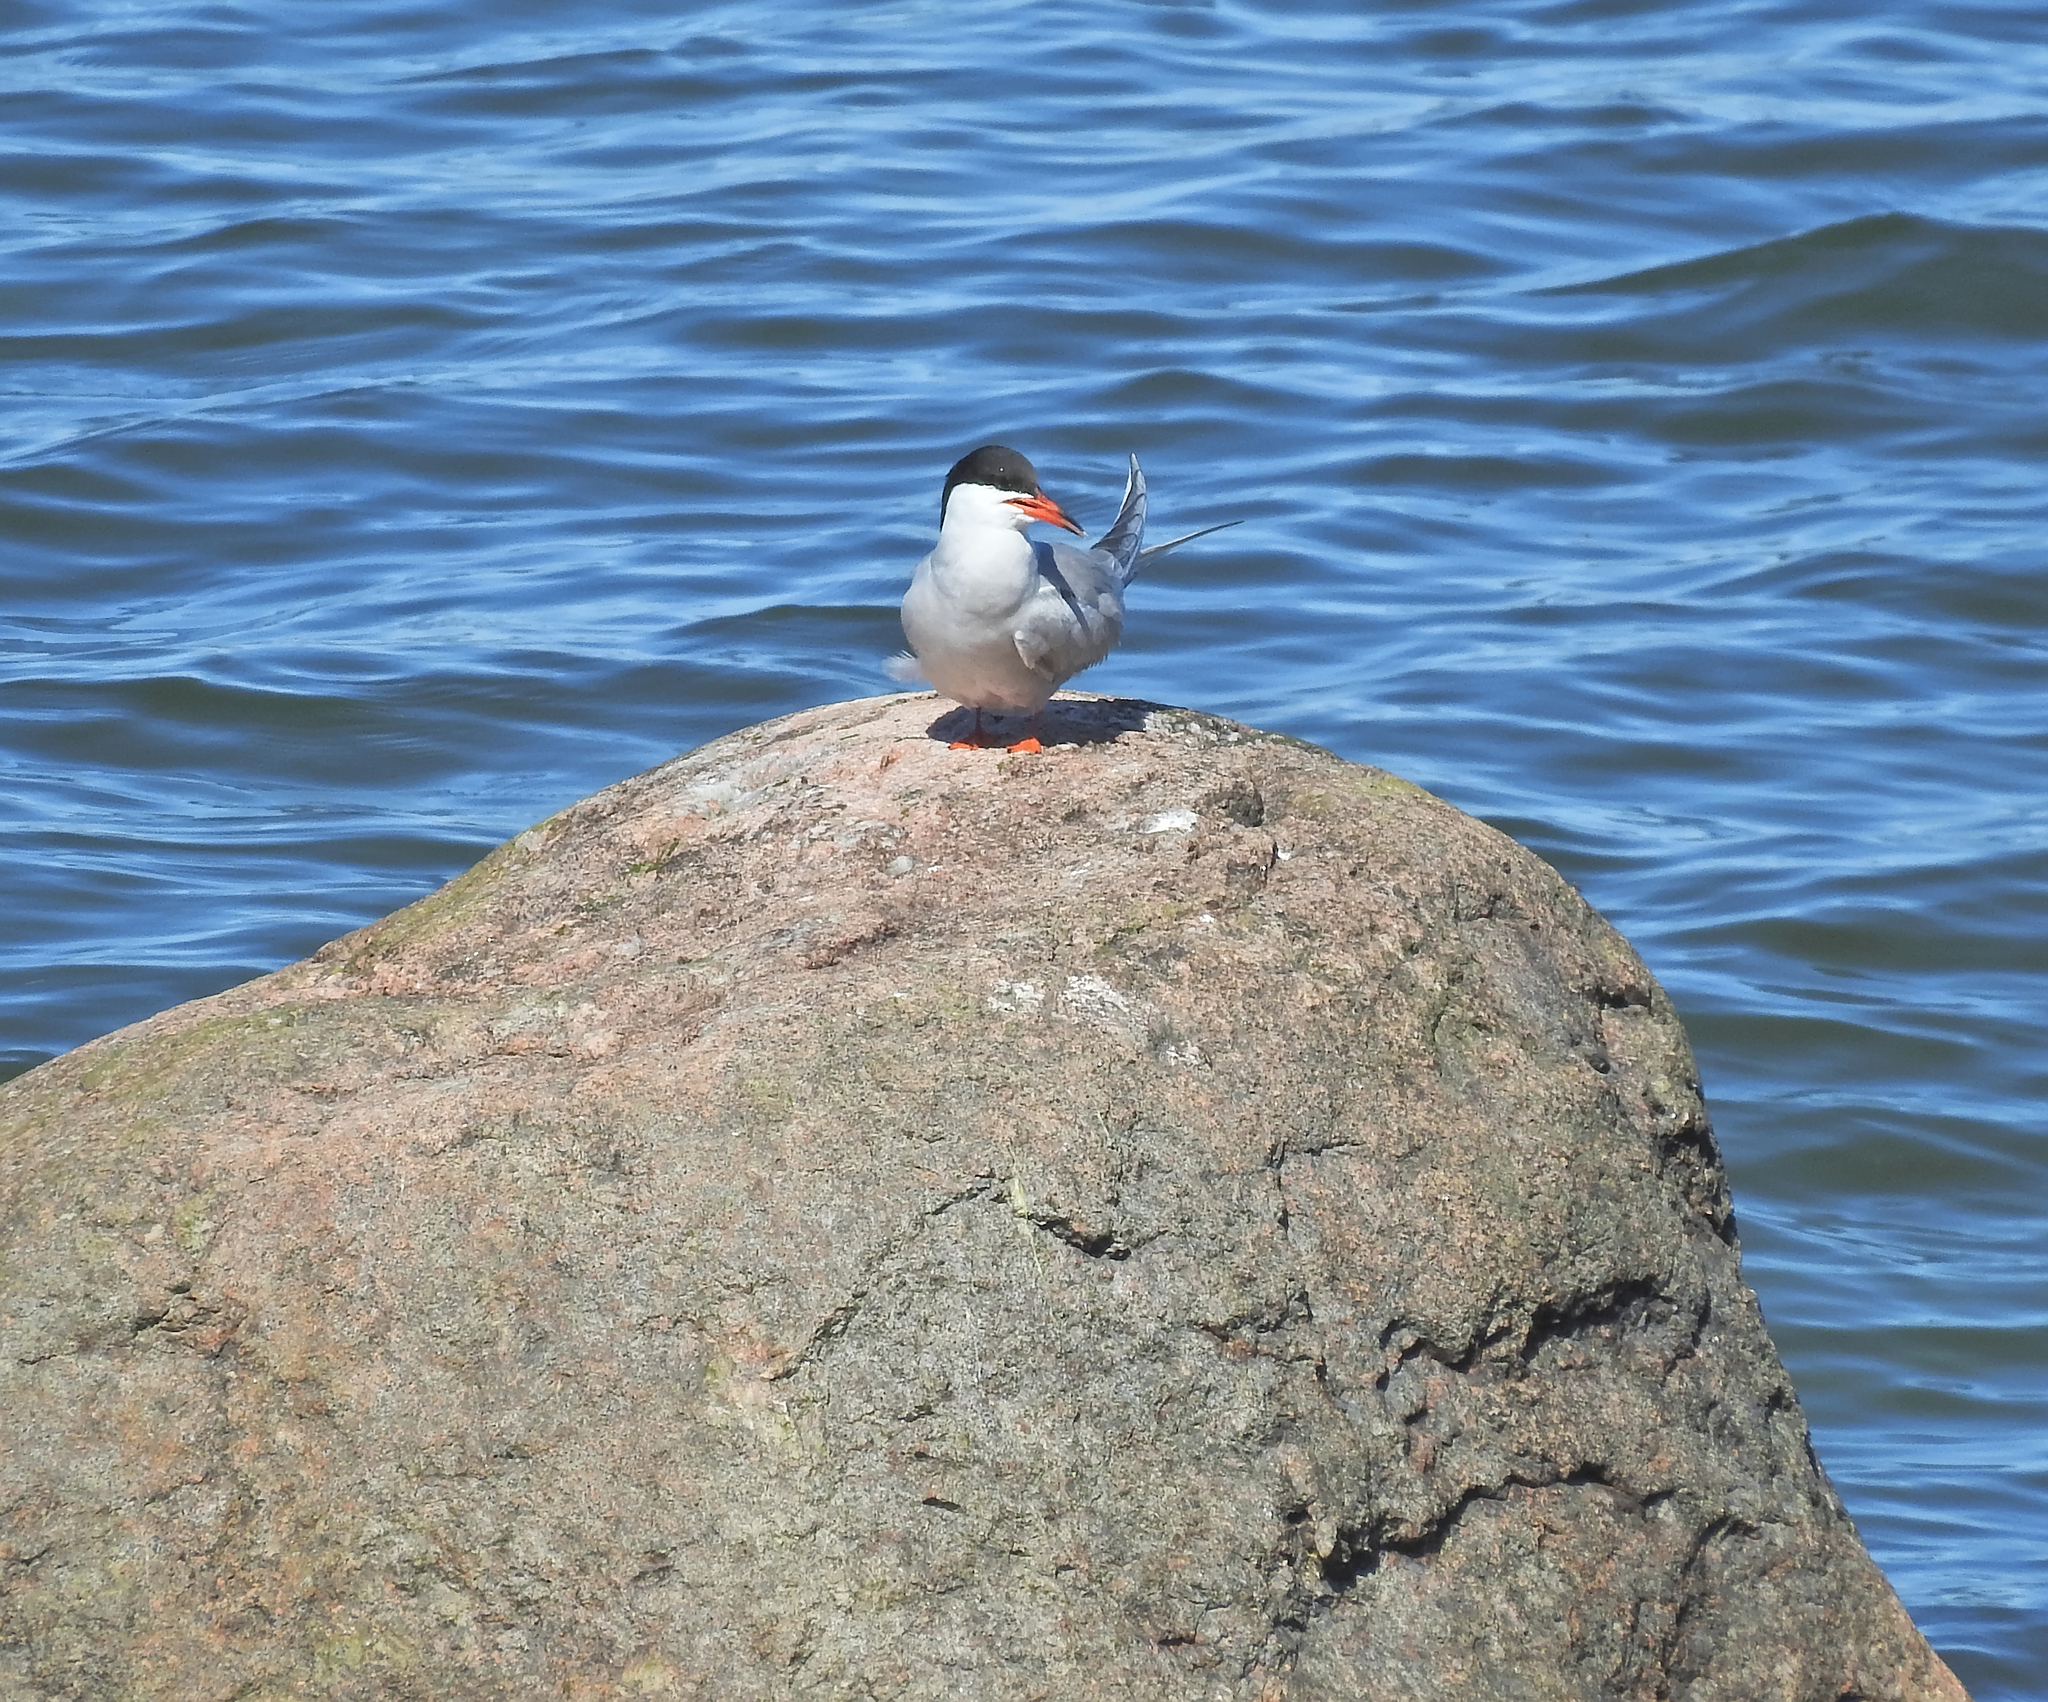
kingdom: Animalia
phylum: Chordata
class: Aves
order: Charadriiformes
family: Laridae
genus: Sterna
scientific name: Sterna hirundo
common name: Common tern
